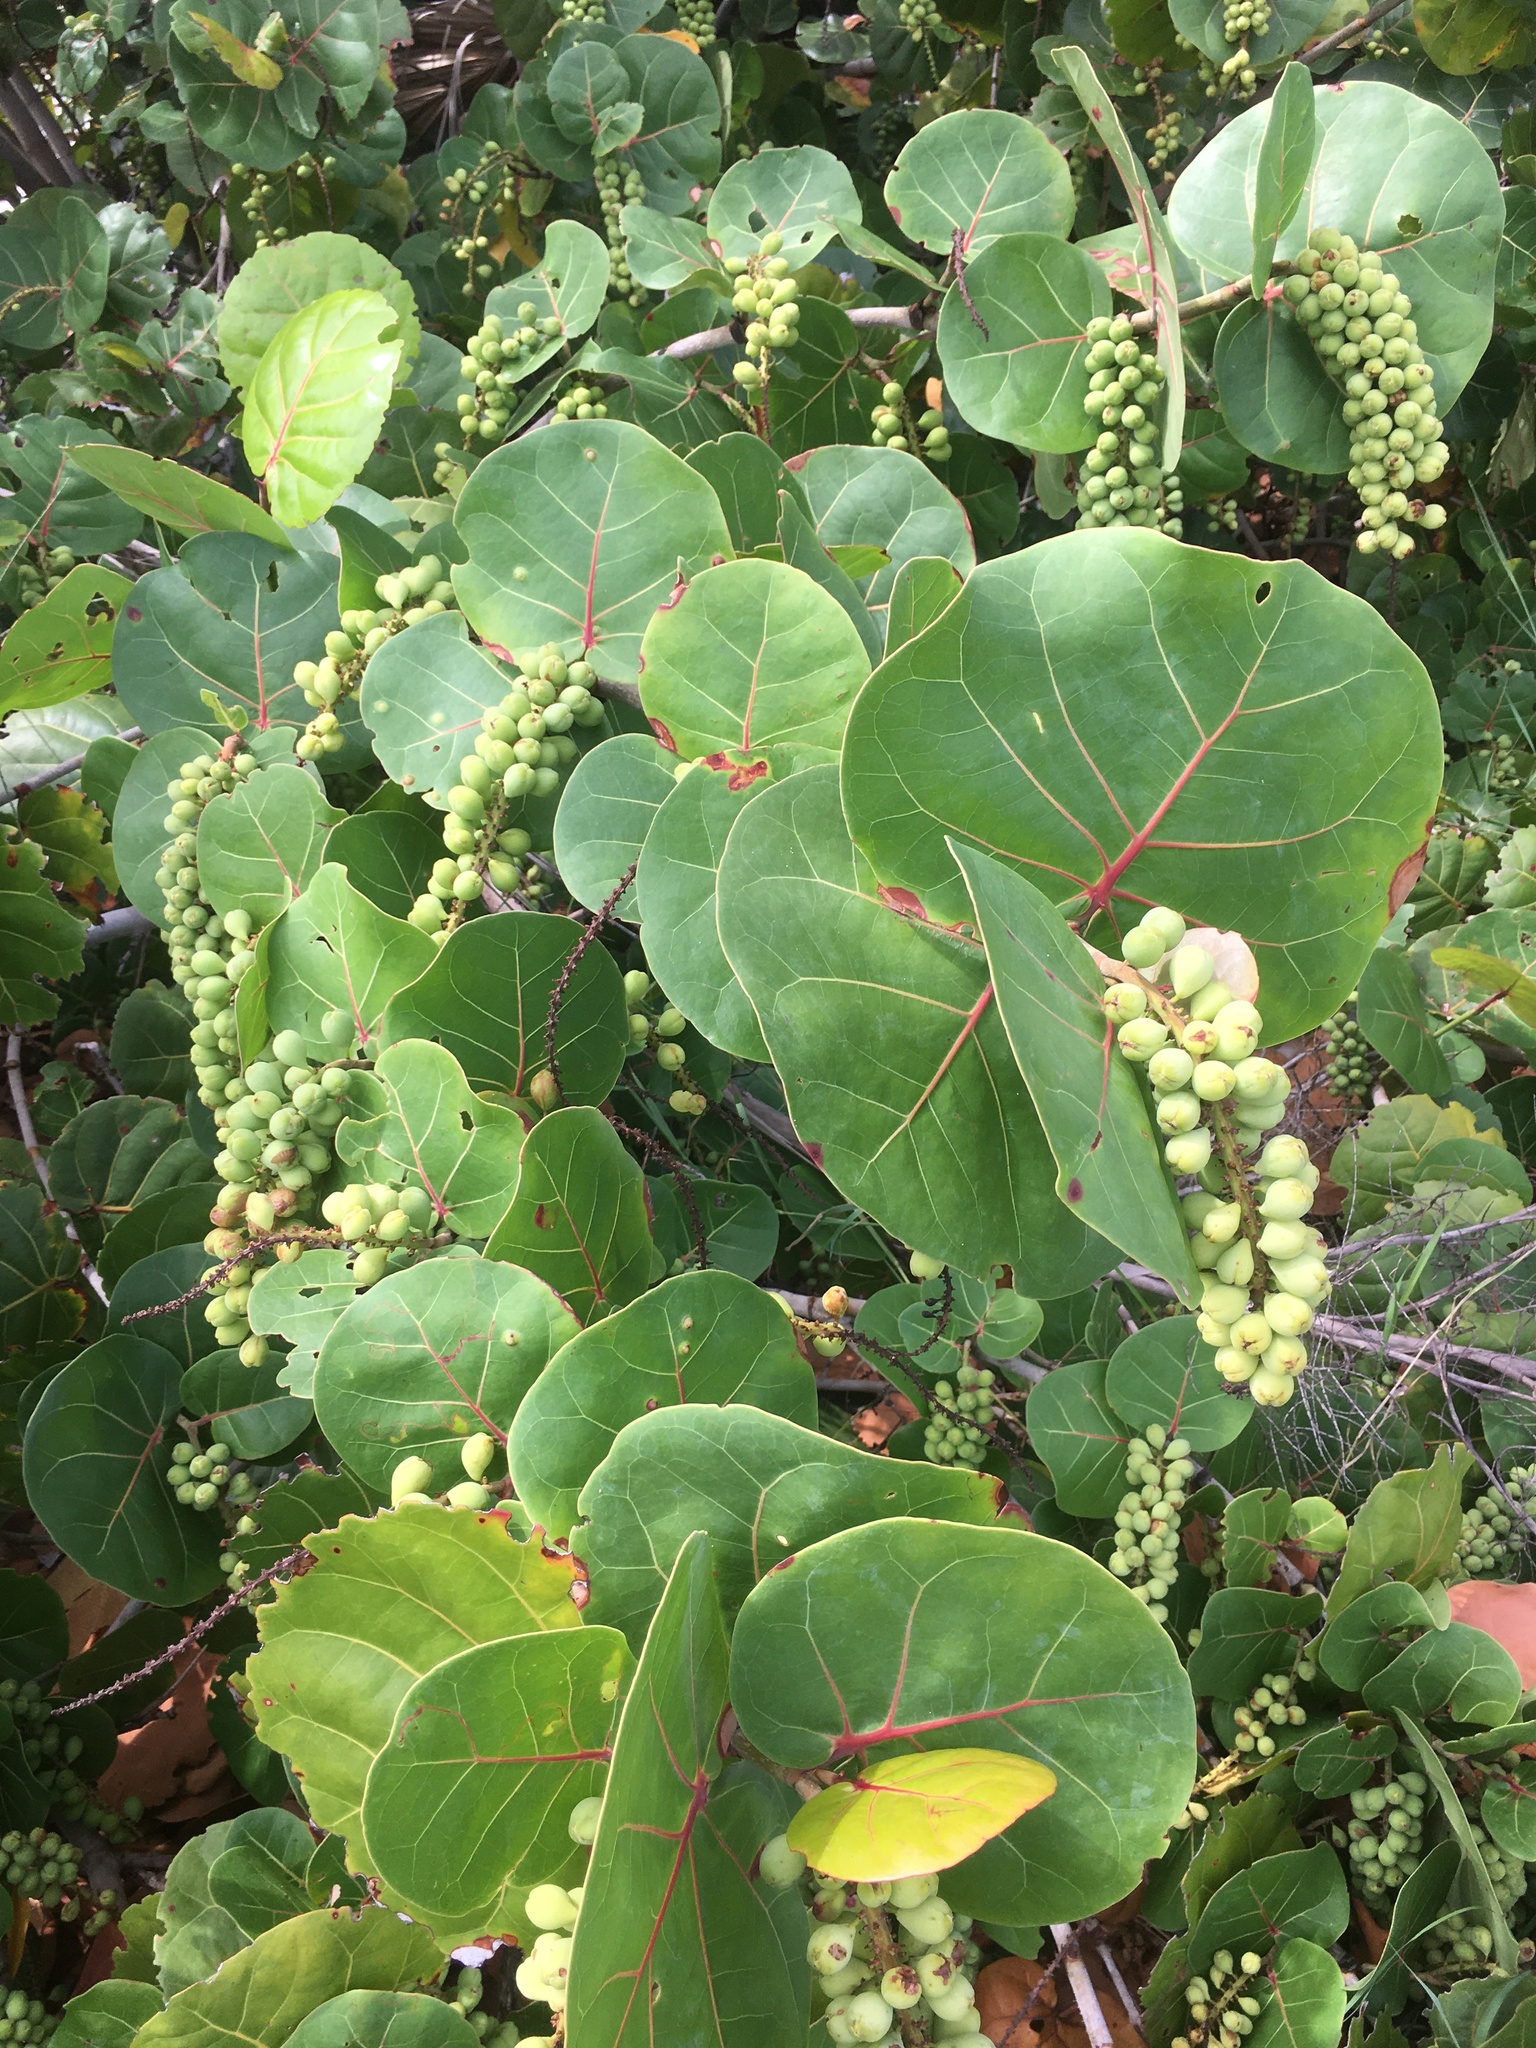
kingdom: Plantae
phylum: Tracheophyta
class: Magnoliopsida
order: Caryophyllales
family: Polygonaceae
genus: Coccoloba
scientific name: Coccoloba uvifera
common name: Seagrape
